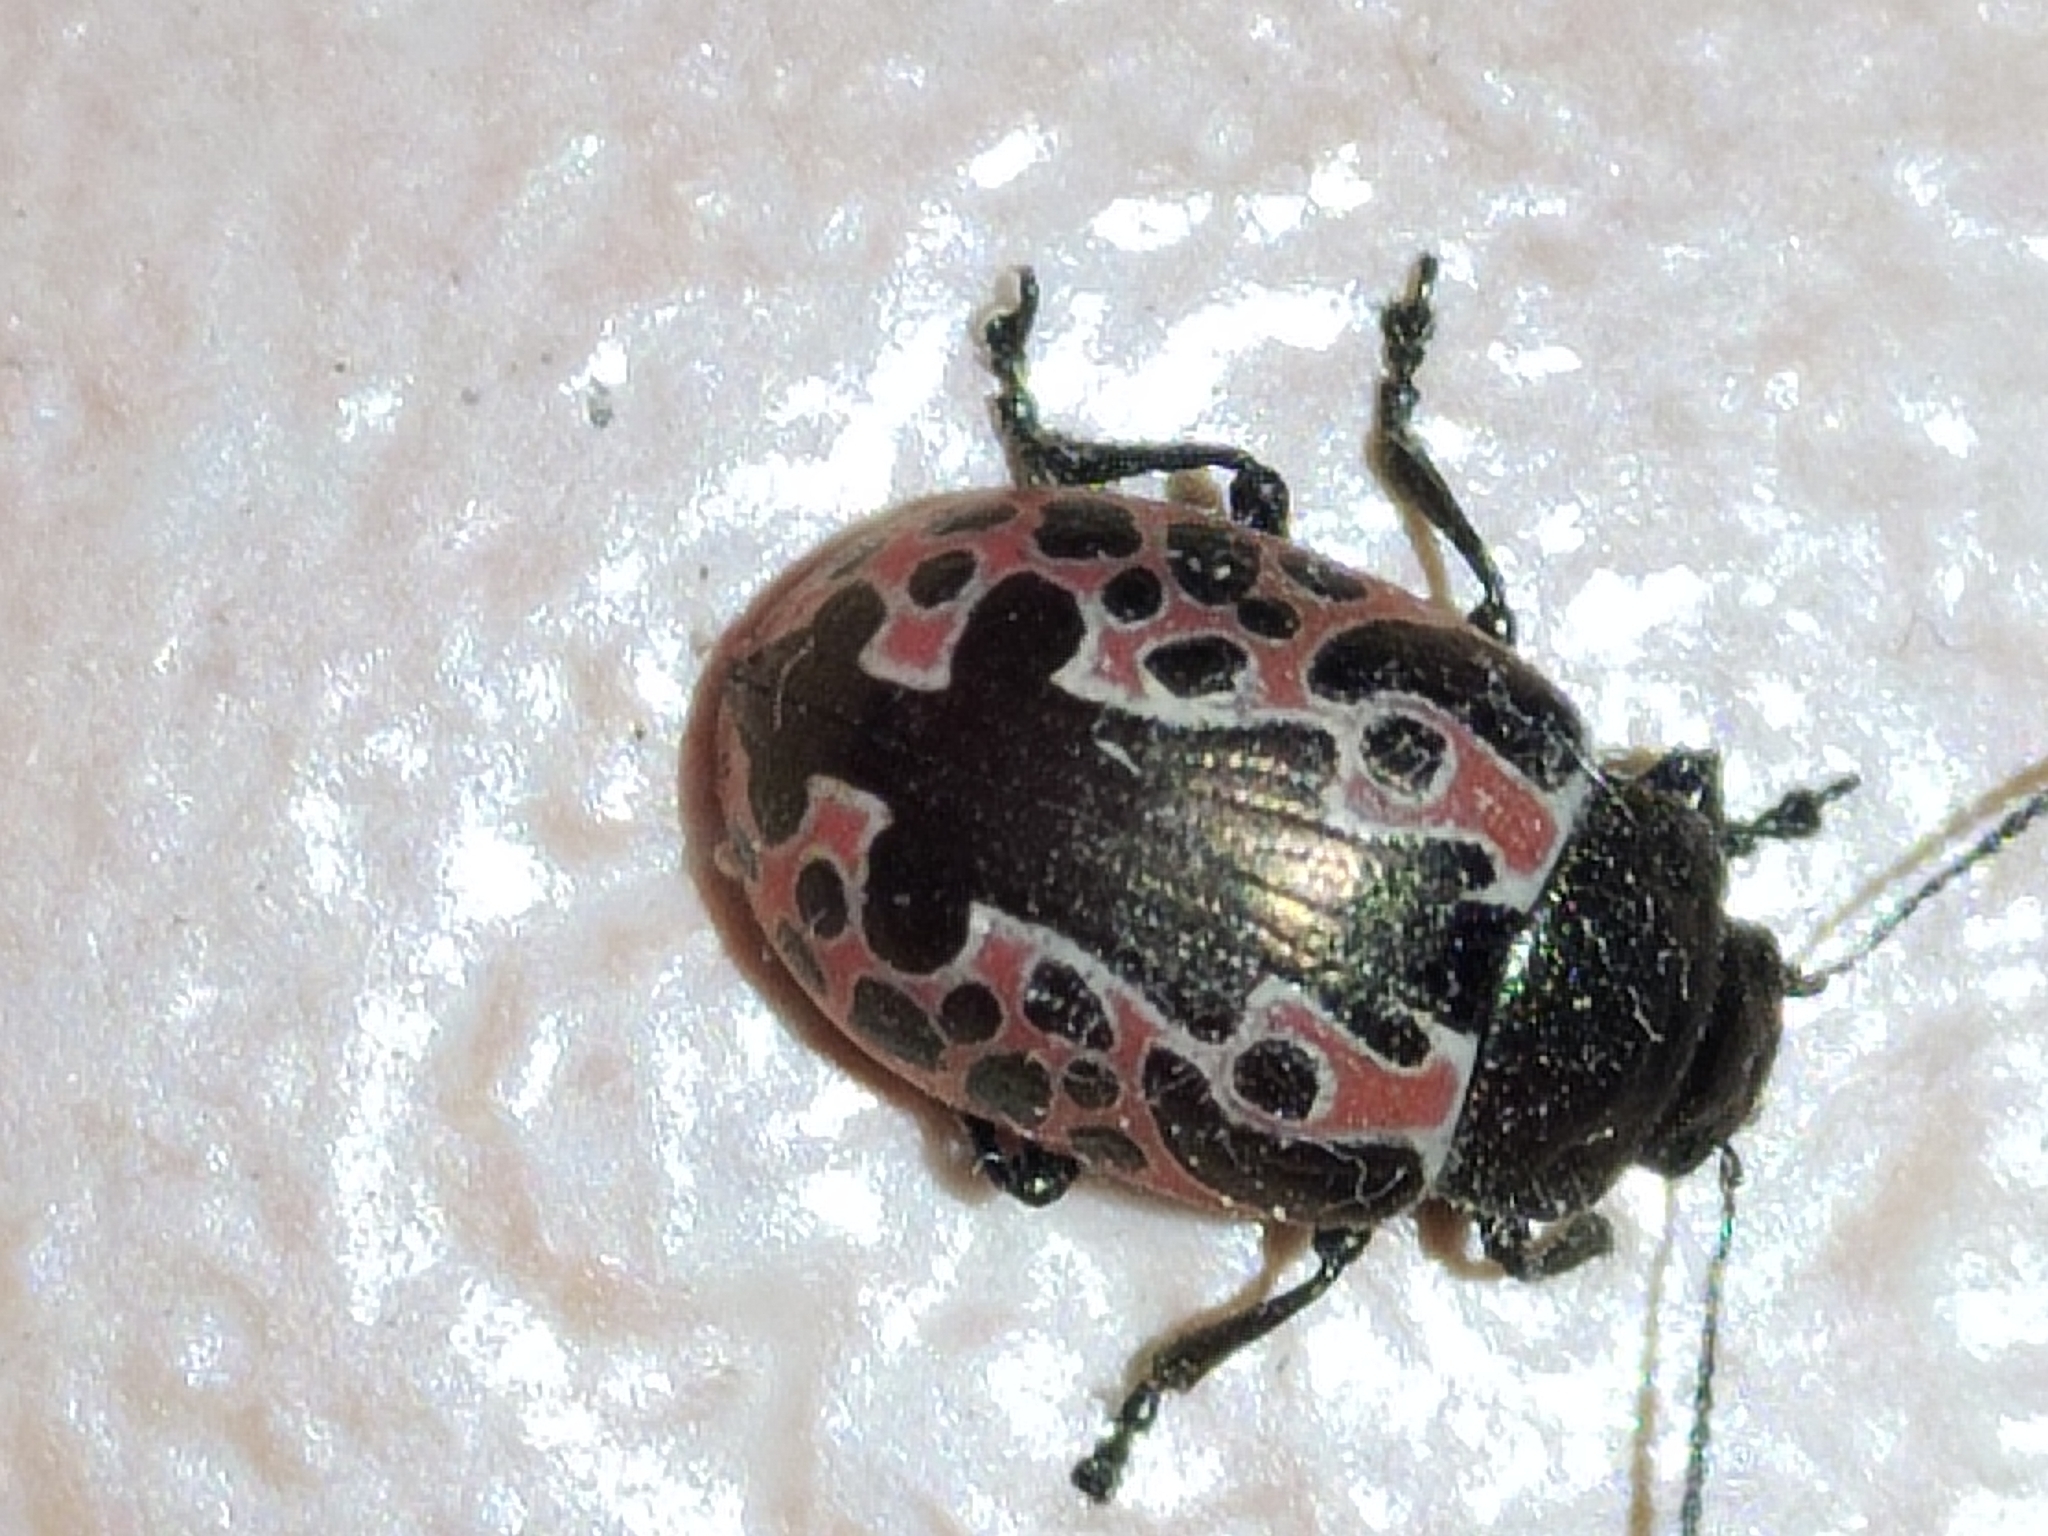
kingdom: Animalia
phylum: Arthropoda
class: Insecta
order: Coleoptera
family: Chrysomelidae
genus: Calligrapha
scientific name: Calligrapha diversa
